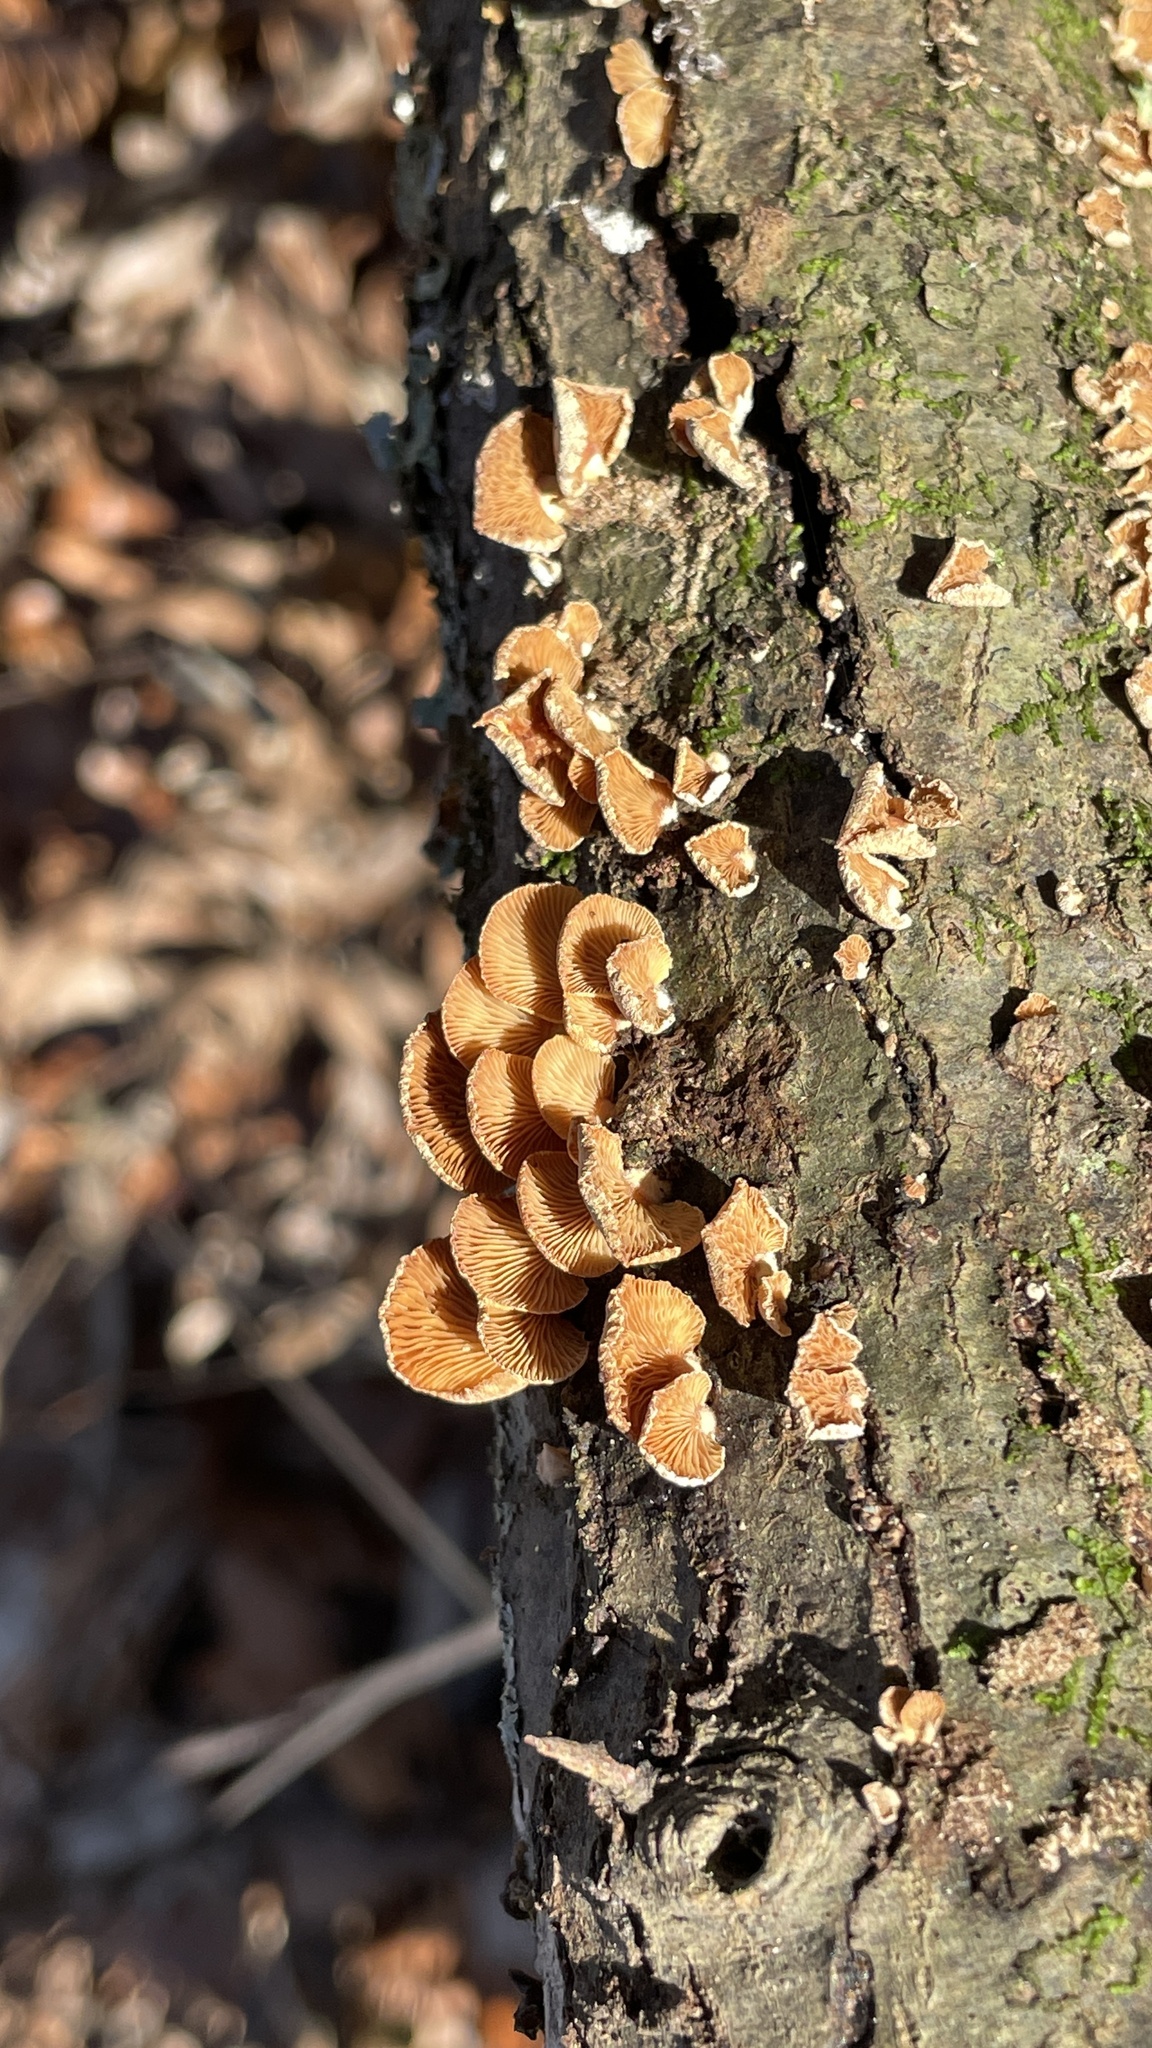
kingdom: Fungi
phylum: Basidiomycota
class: Agaricomycetes
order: Agaricales
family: Mycenaceae
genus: Panellus
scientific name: Panellus stipticus
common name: Bitter oysterling
